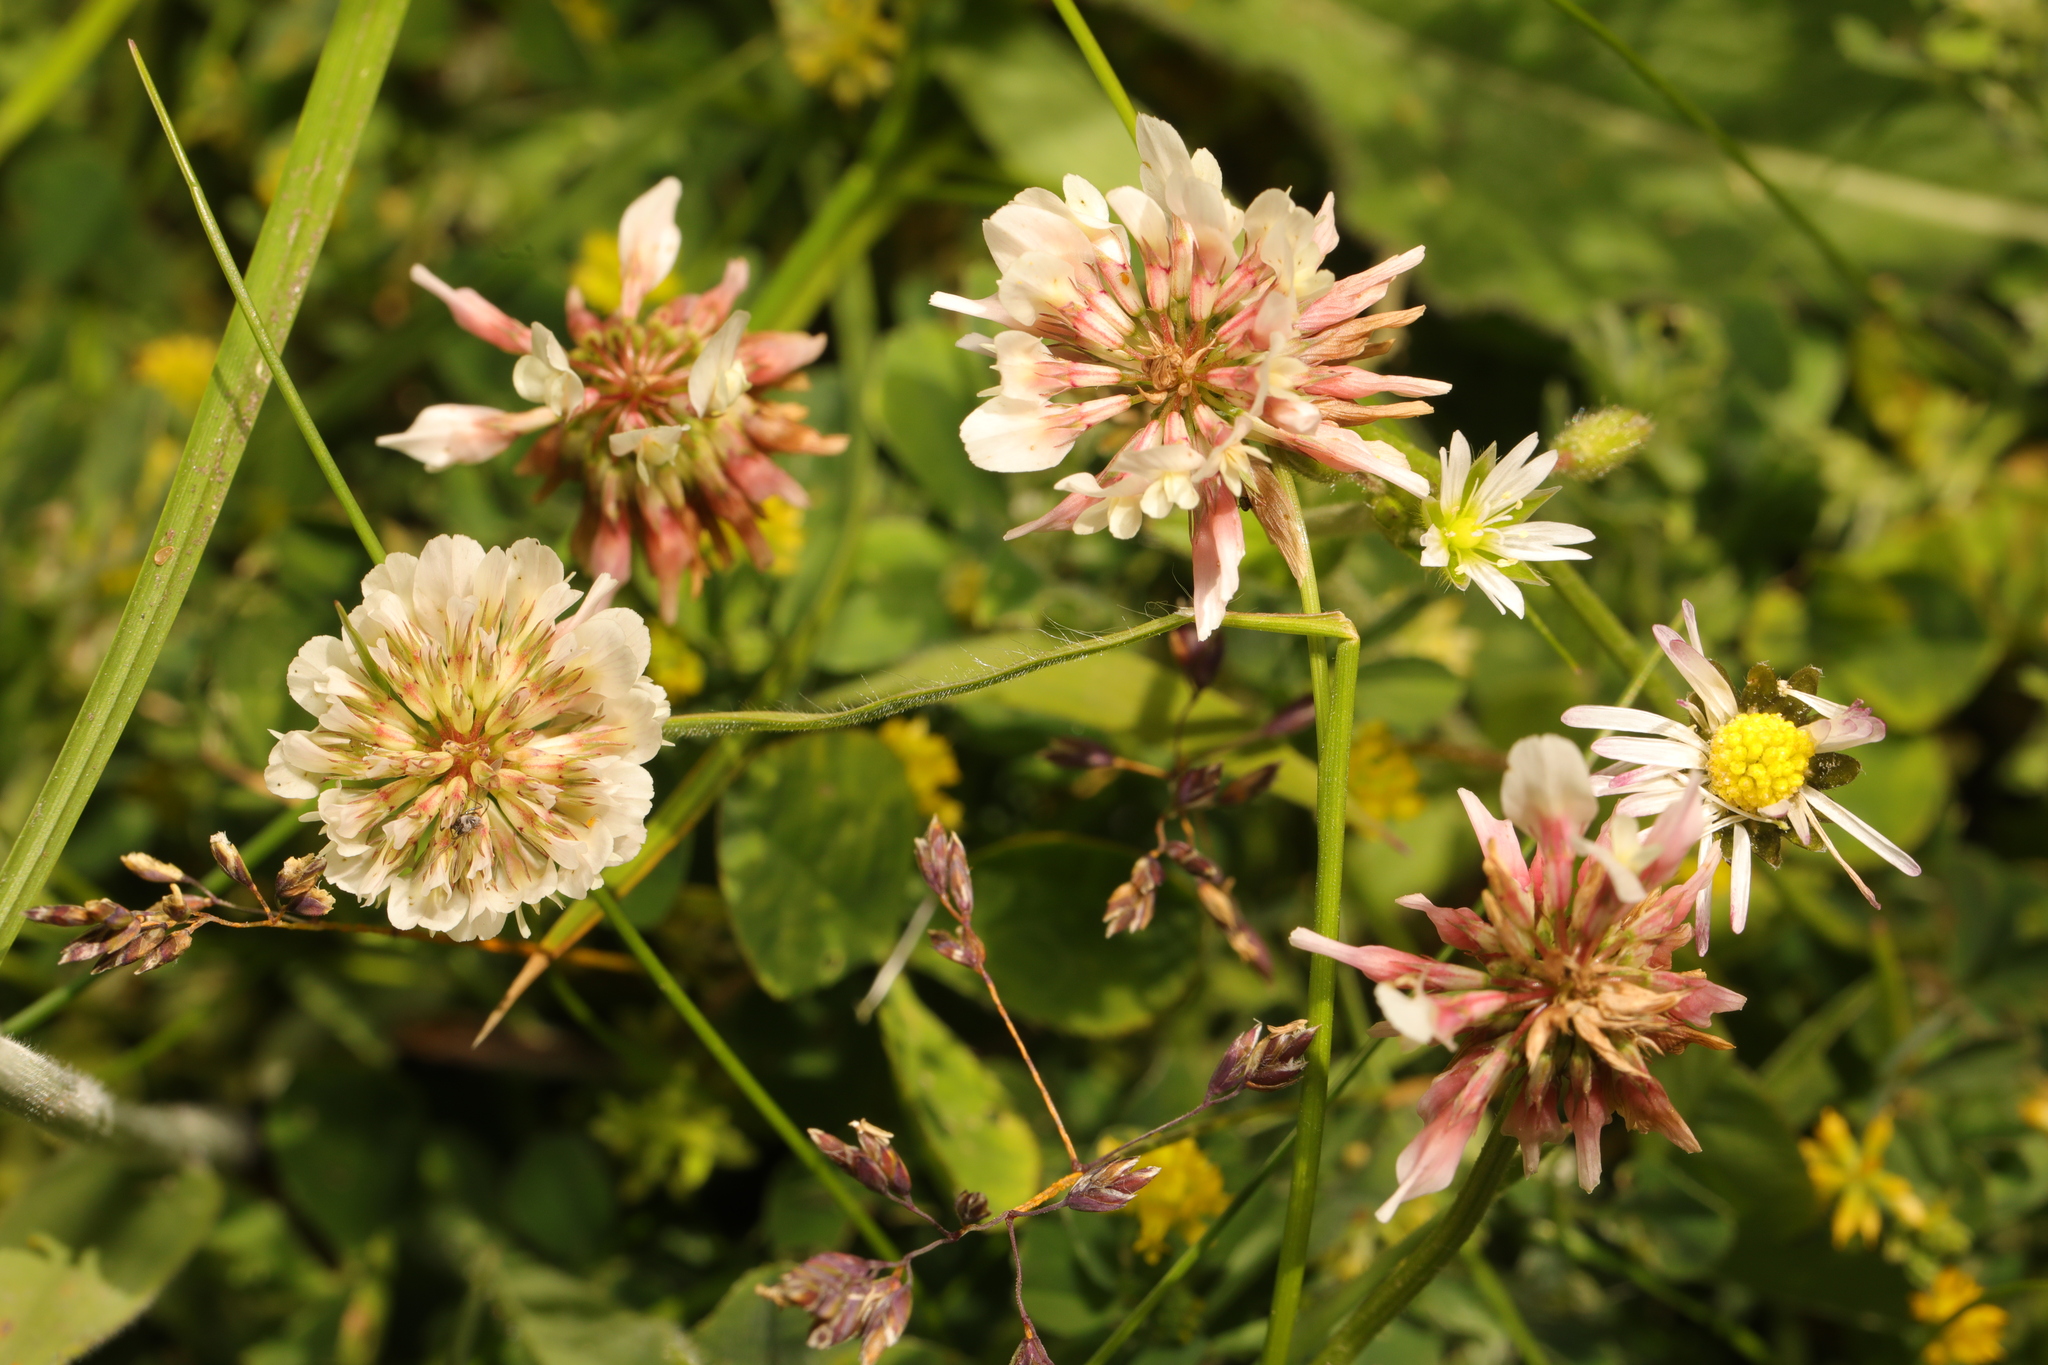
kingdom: Plantae
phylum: Tracheophyta
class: Magnoliopsida
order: Fabales
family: Fabaceae
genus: Trifolium
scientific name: Trifolium repens
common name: White clover
